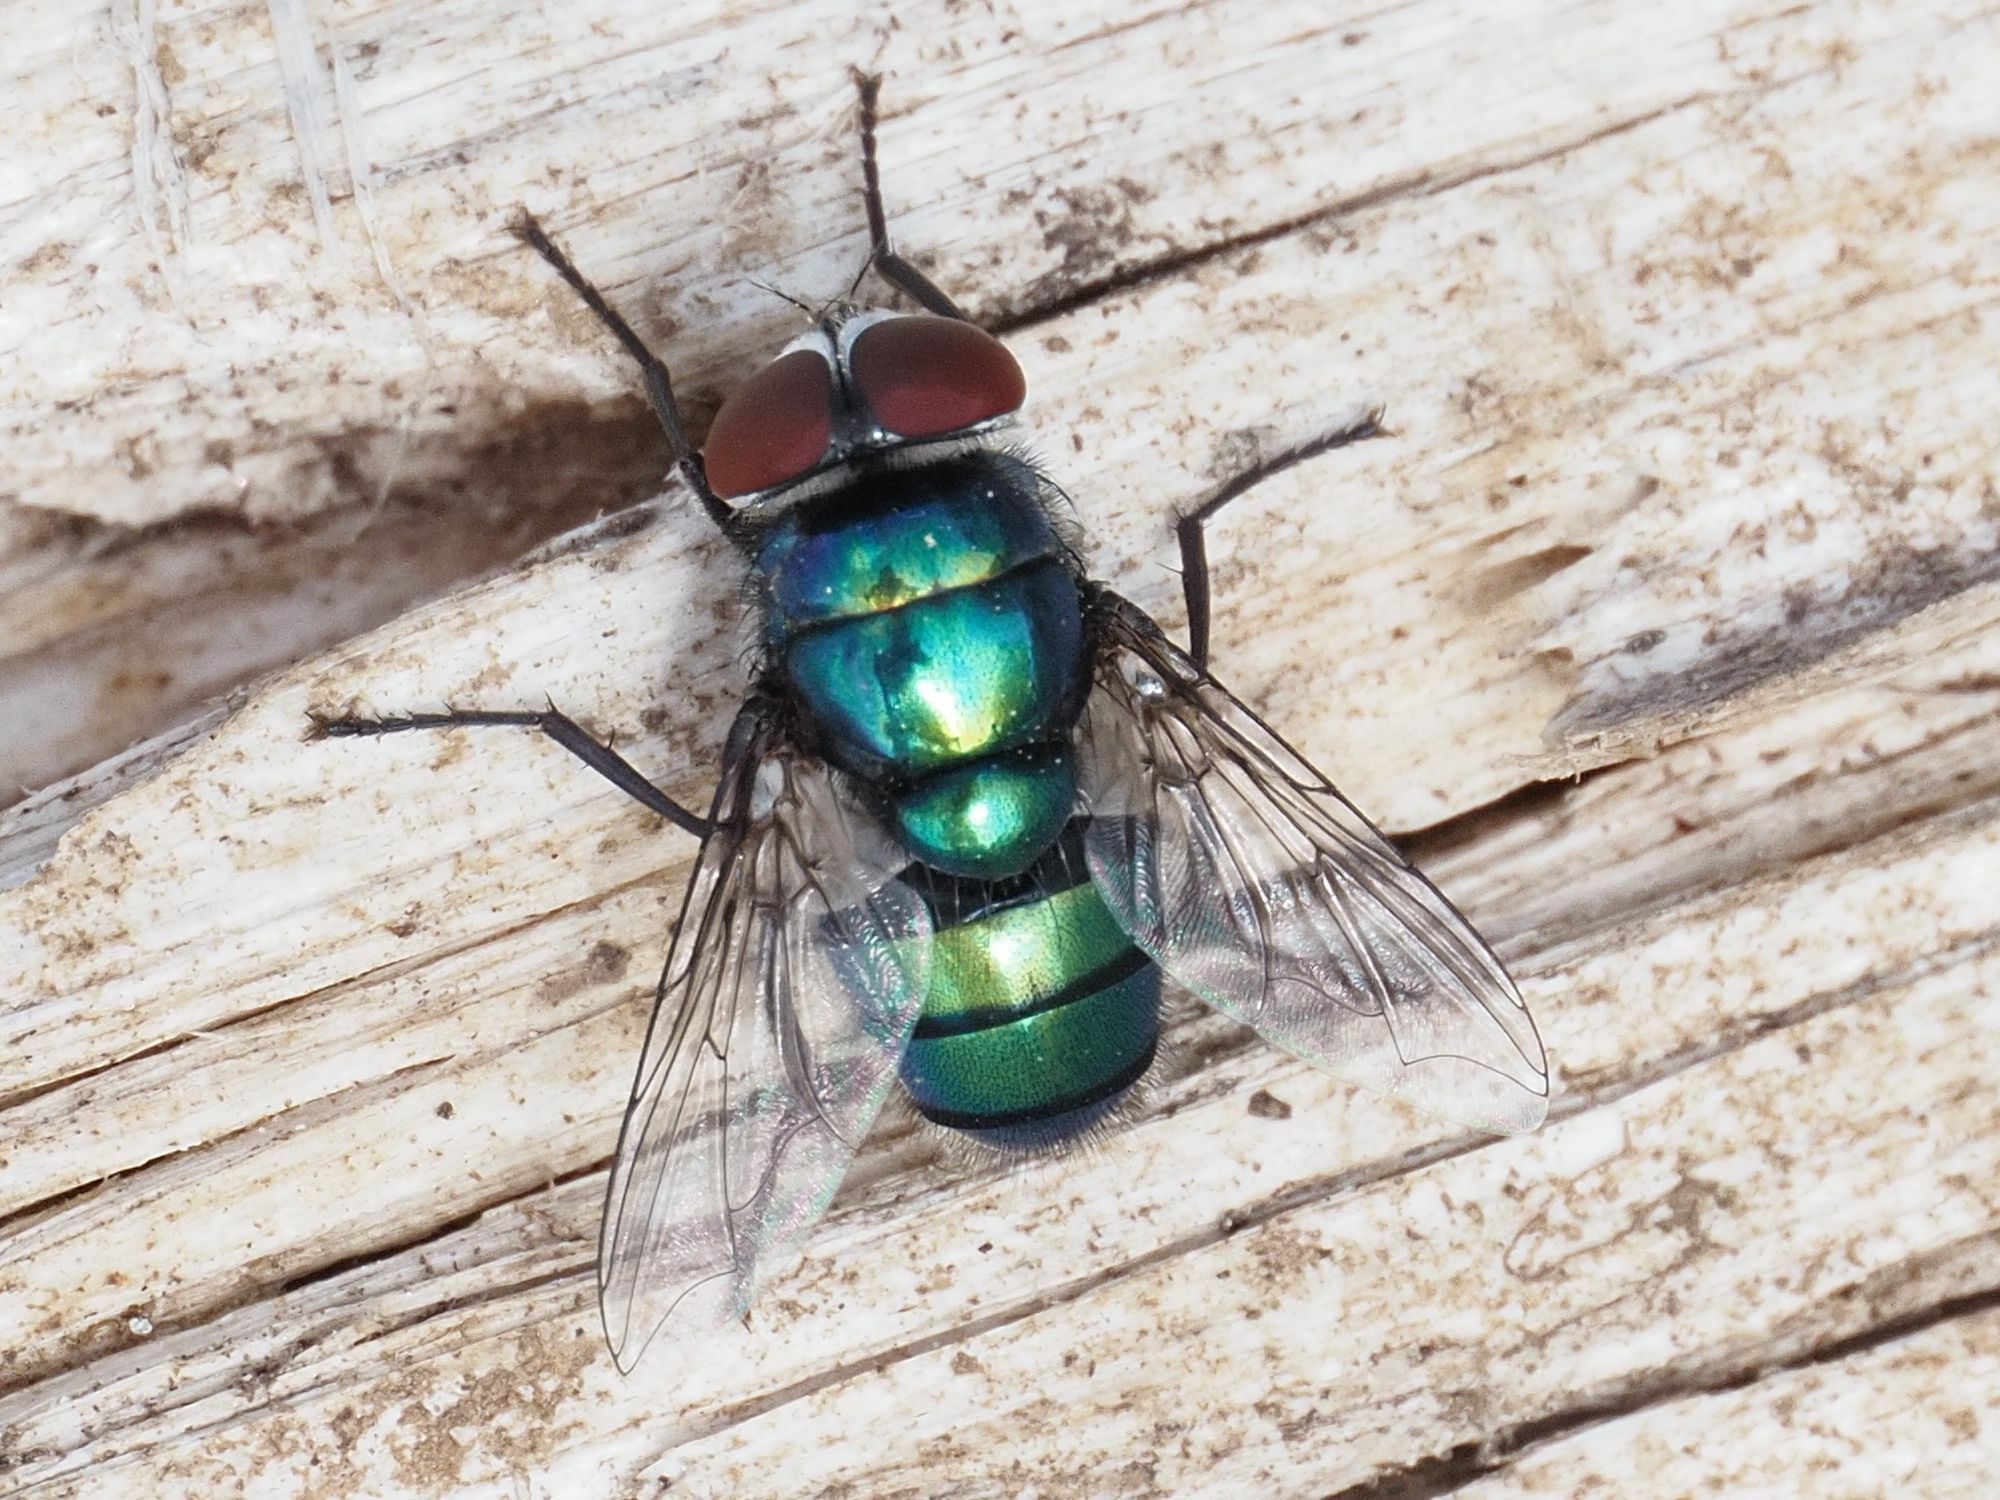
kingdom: Animalia
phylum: Arthropoda
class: Insecta
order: Diptera
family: Calliphoridae
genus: Chrysomya
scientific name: Chrysomya albiceps
